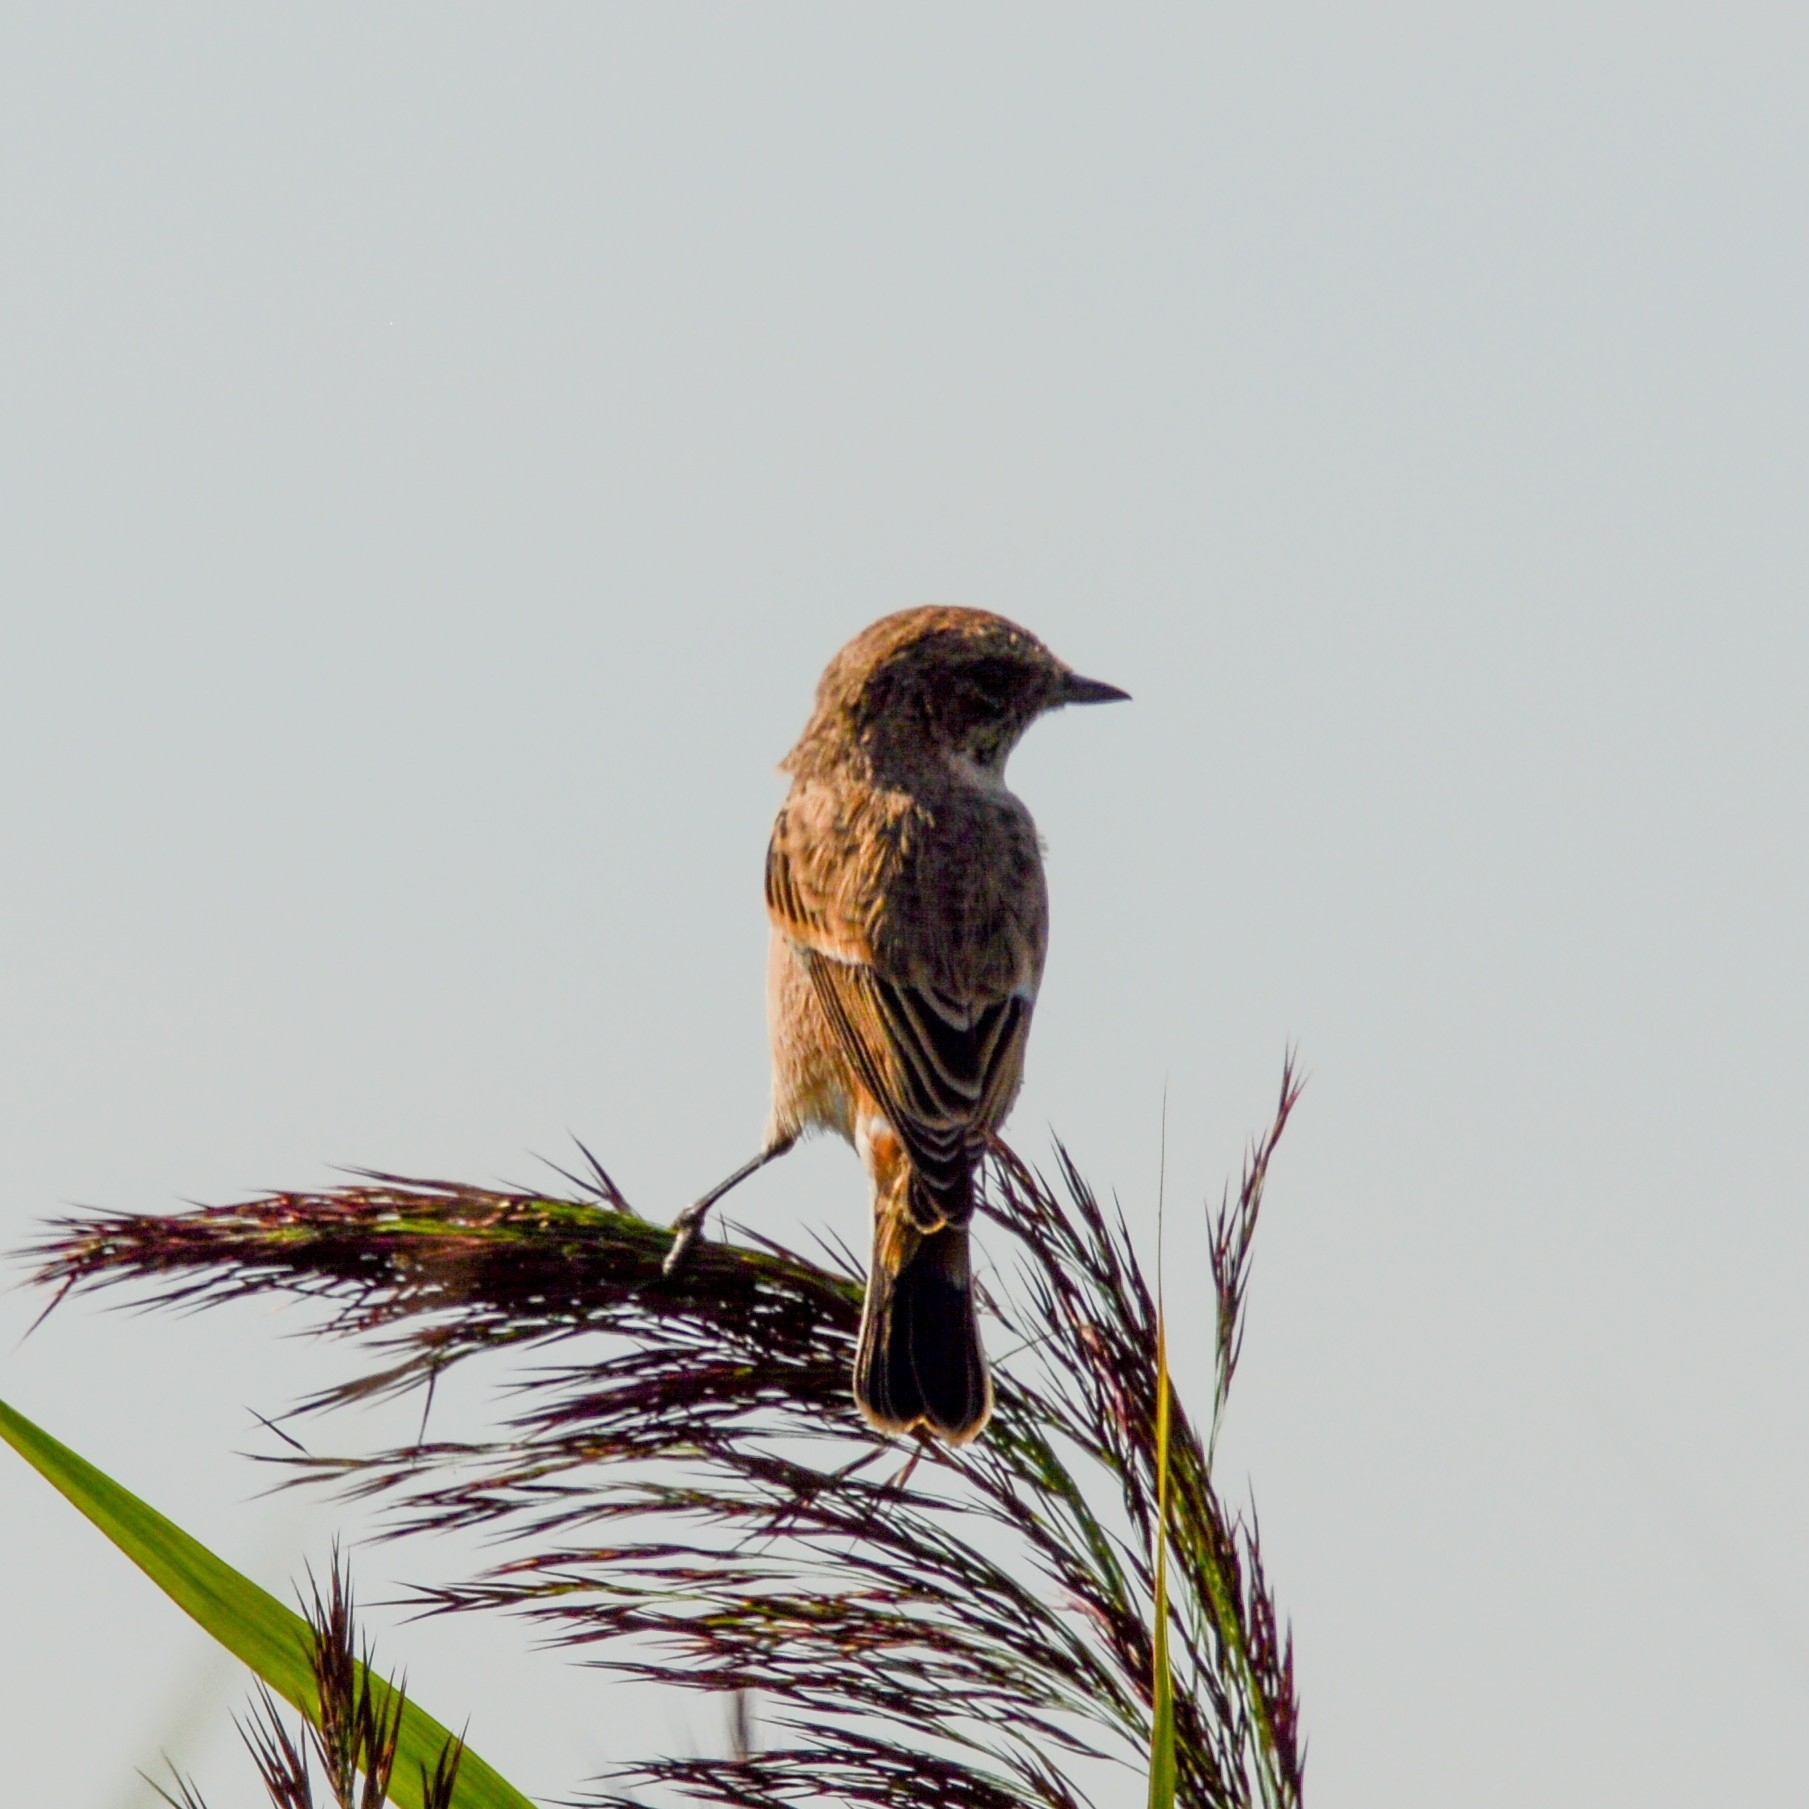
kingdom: Animalia
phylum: Chordata
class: Aves
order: Passeriformes
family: Muscicapidae
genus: Saxicola
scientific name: Saxicola maurus
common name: Siberian stonechat
